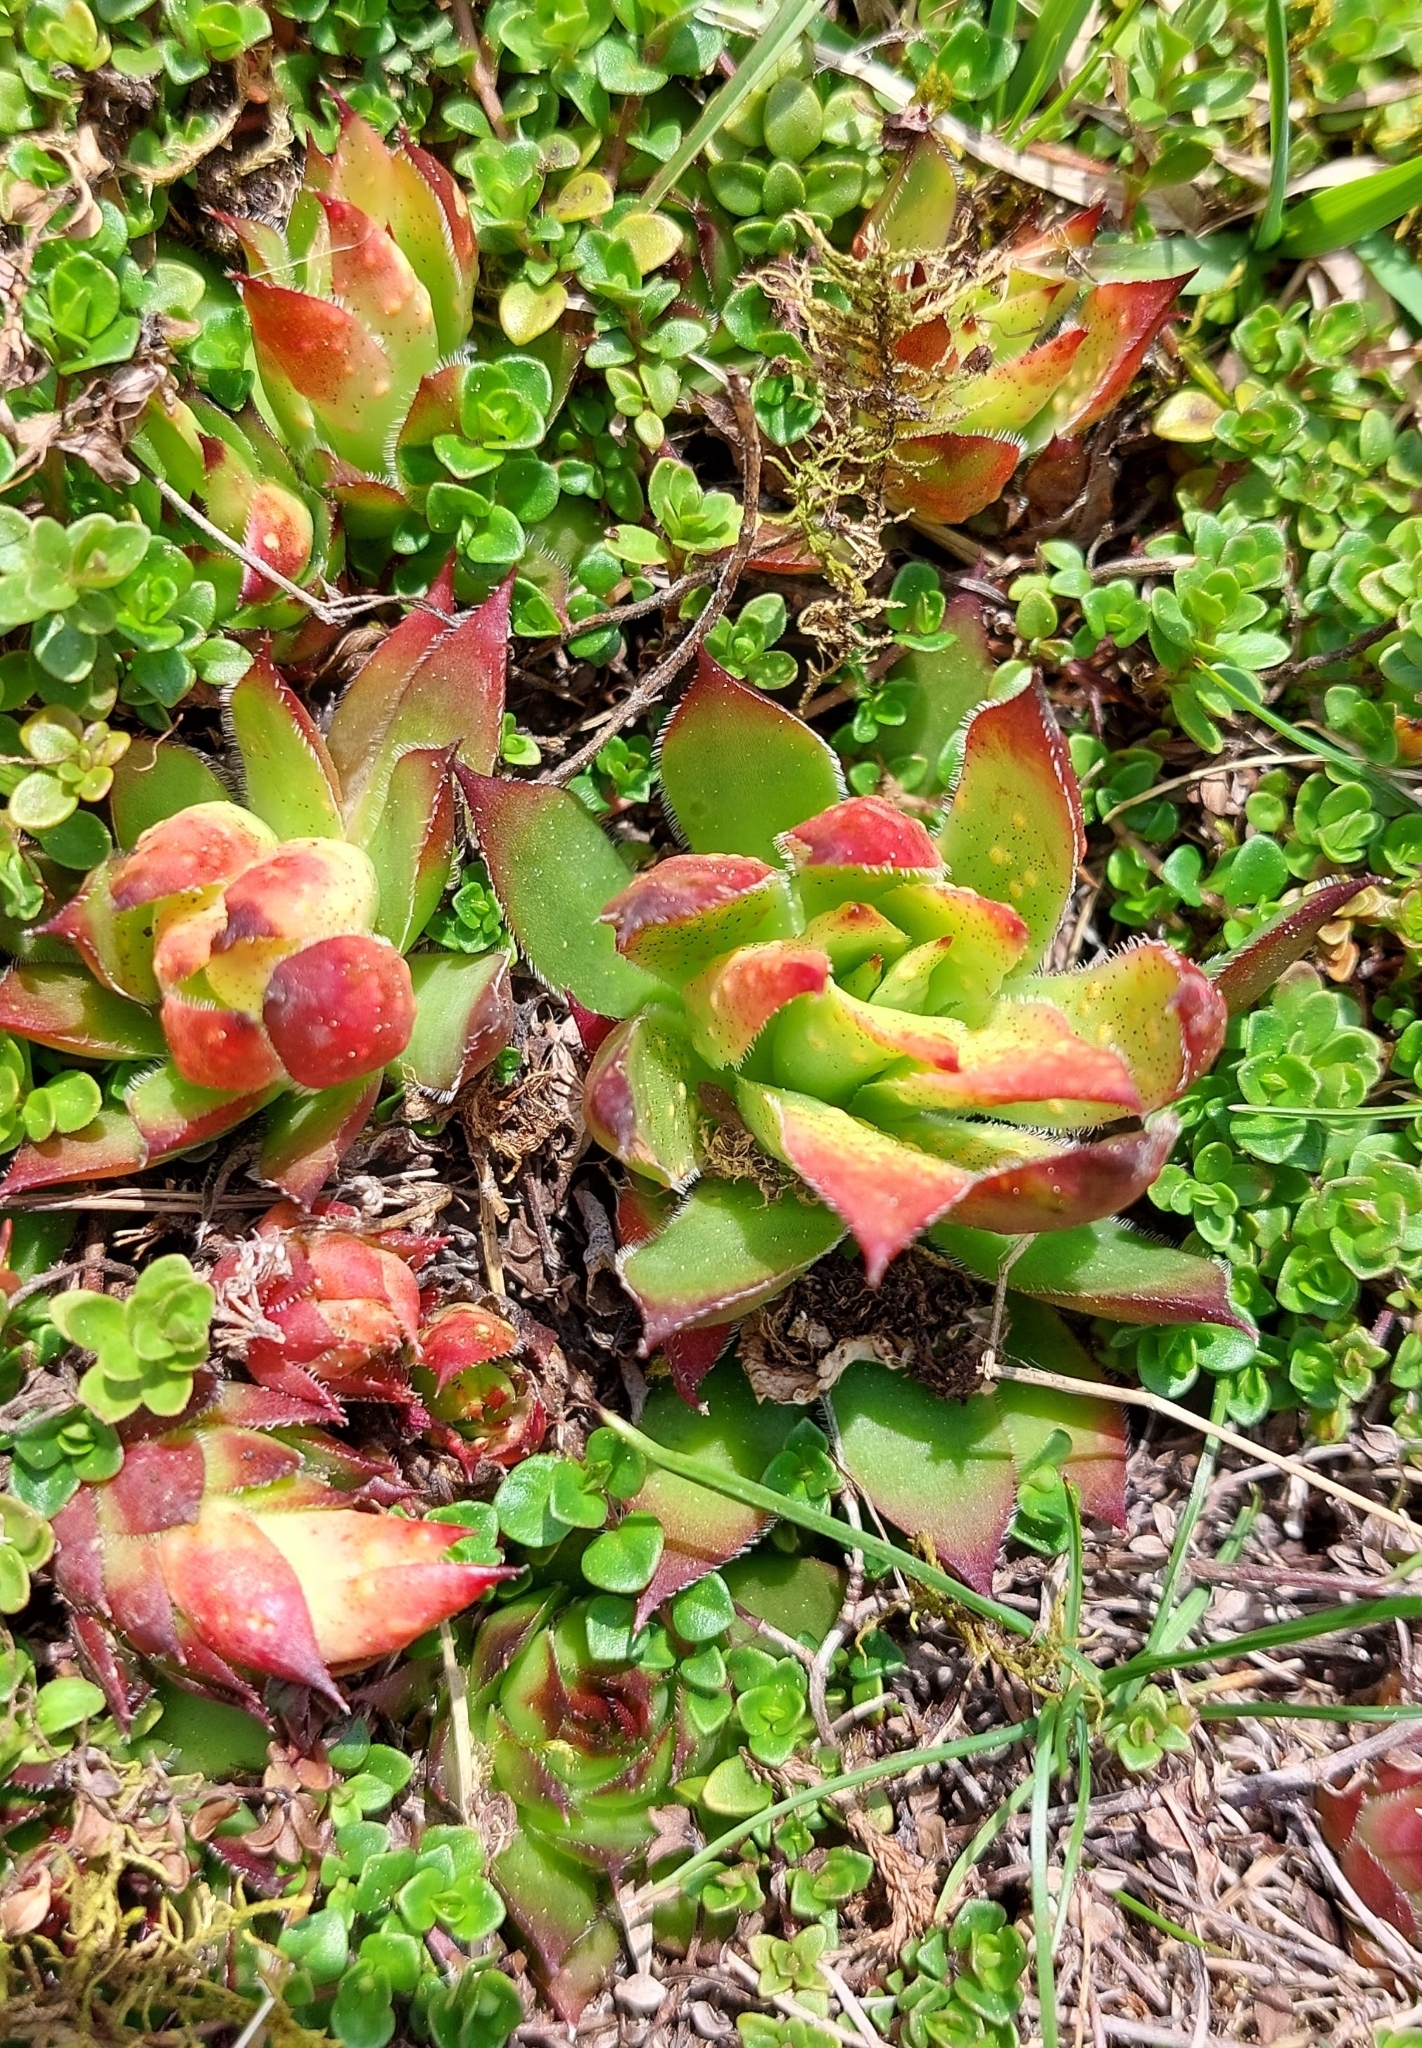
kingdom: Plantae
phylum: Tracheophyta
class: Magnoliopsida
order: Saxifragales
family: Crassulaceae
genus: Sempervivum
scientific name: Sempervivum tectorum
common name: House-leek
